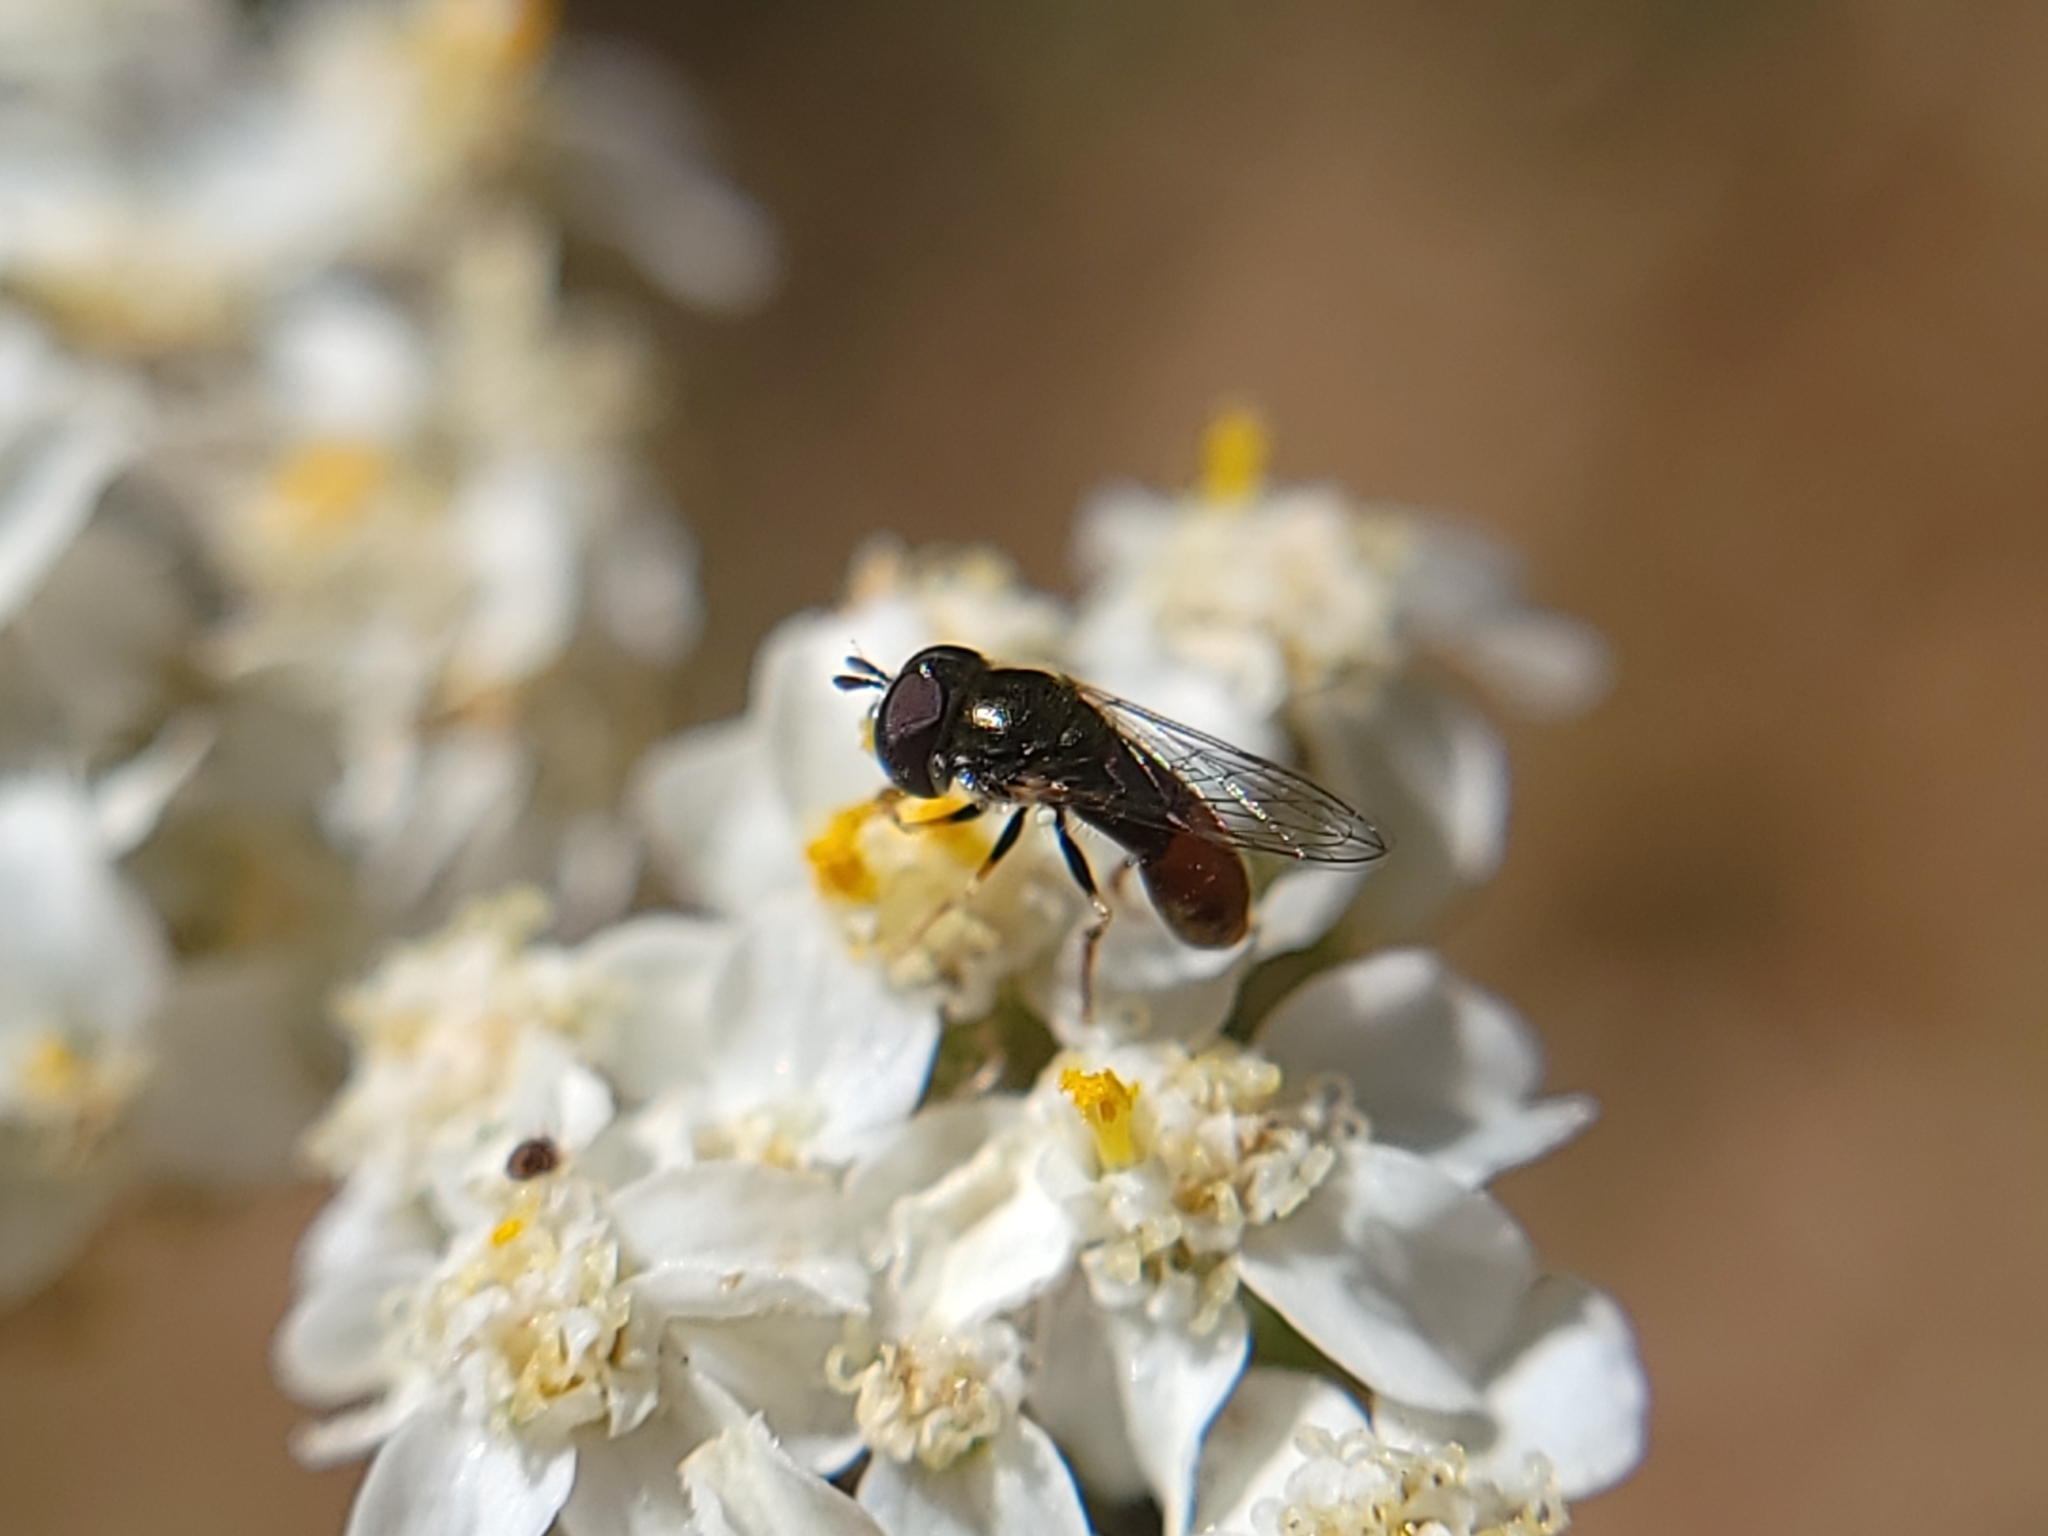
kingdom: Animalia
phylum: Arthropoda
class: Insecta
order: Diptera
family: Syrphidae
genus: Paragus
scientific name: Paragus haemorrhous
